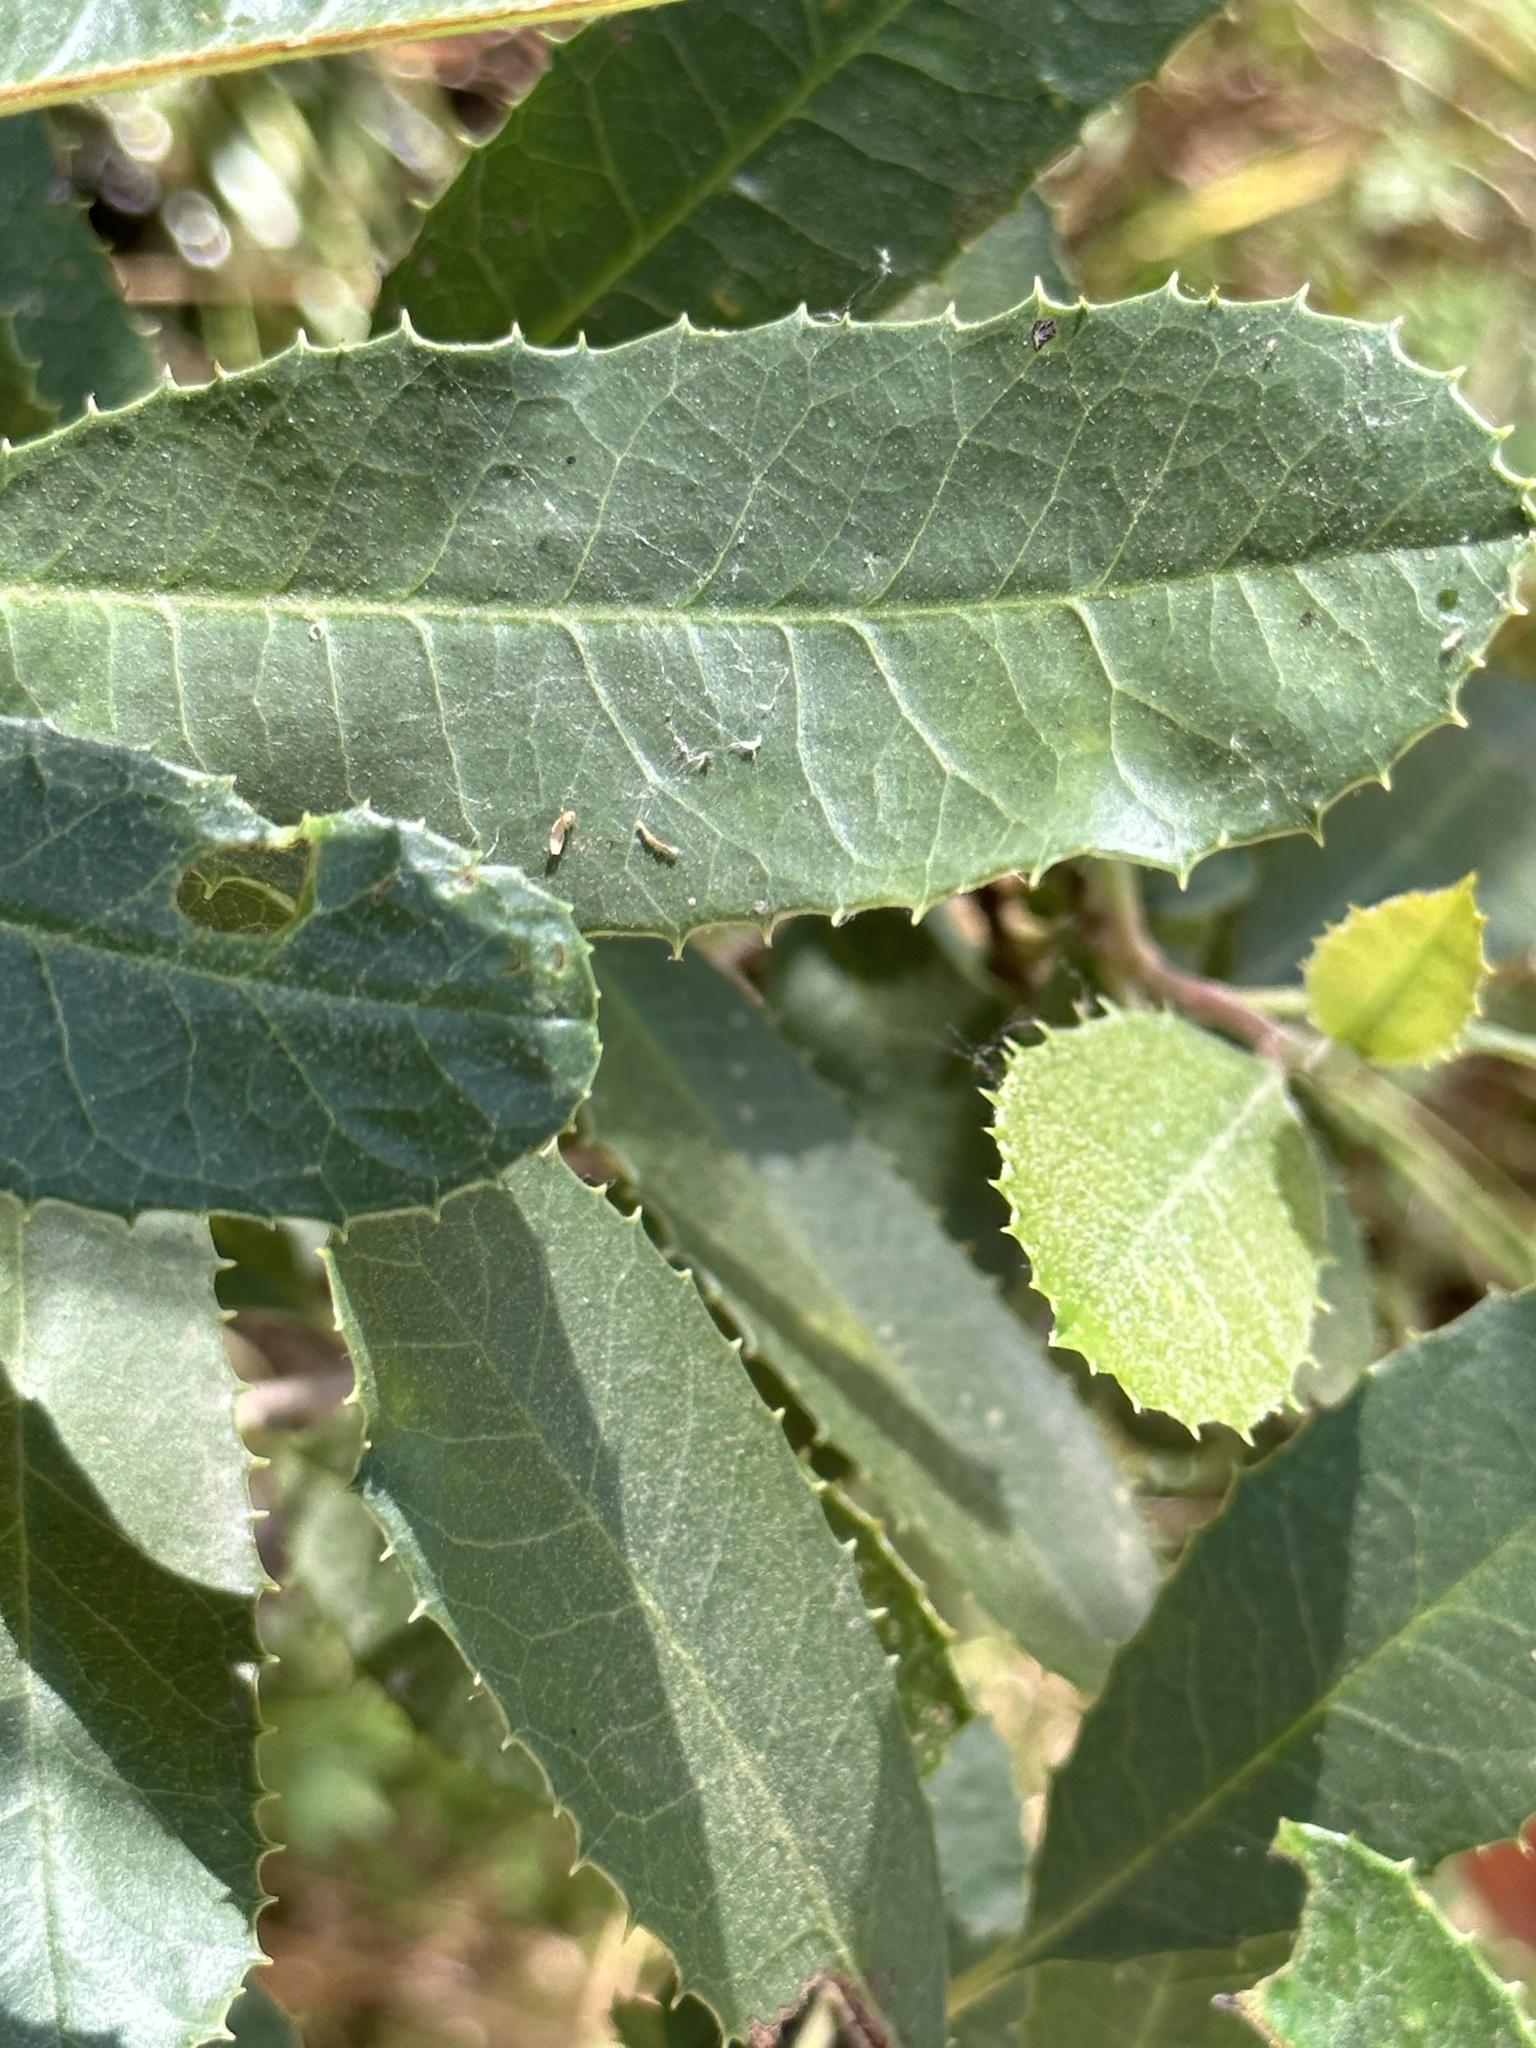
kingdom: Plantae
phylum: Tracheophyta
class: Magnoliopsida
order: Rosales
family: Rosaceae
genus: Heteromeles
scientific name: Heteromeles arbutifolia
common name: California-holly
